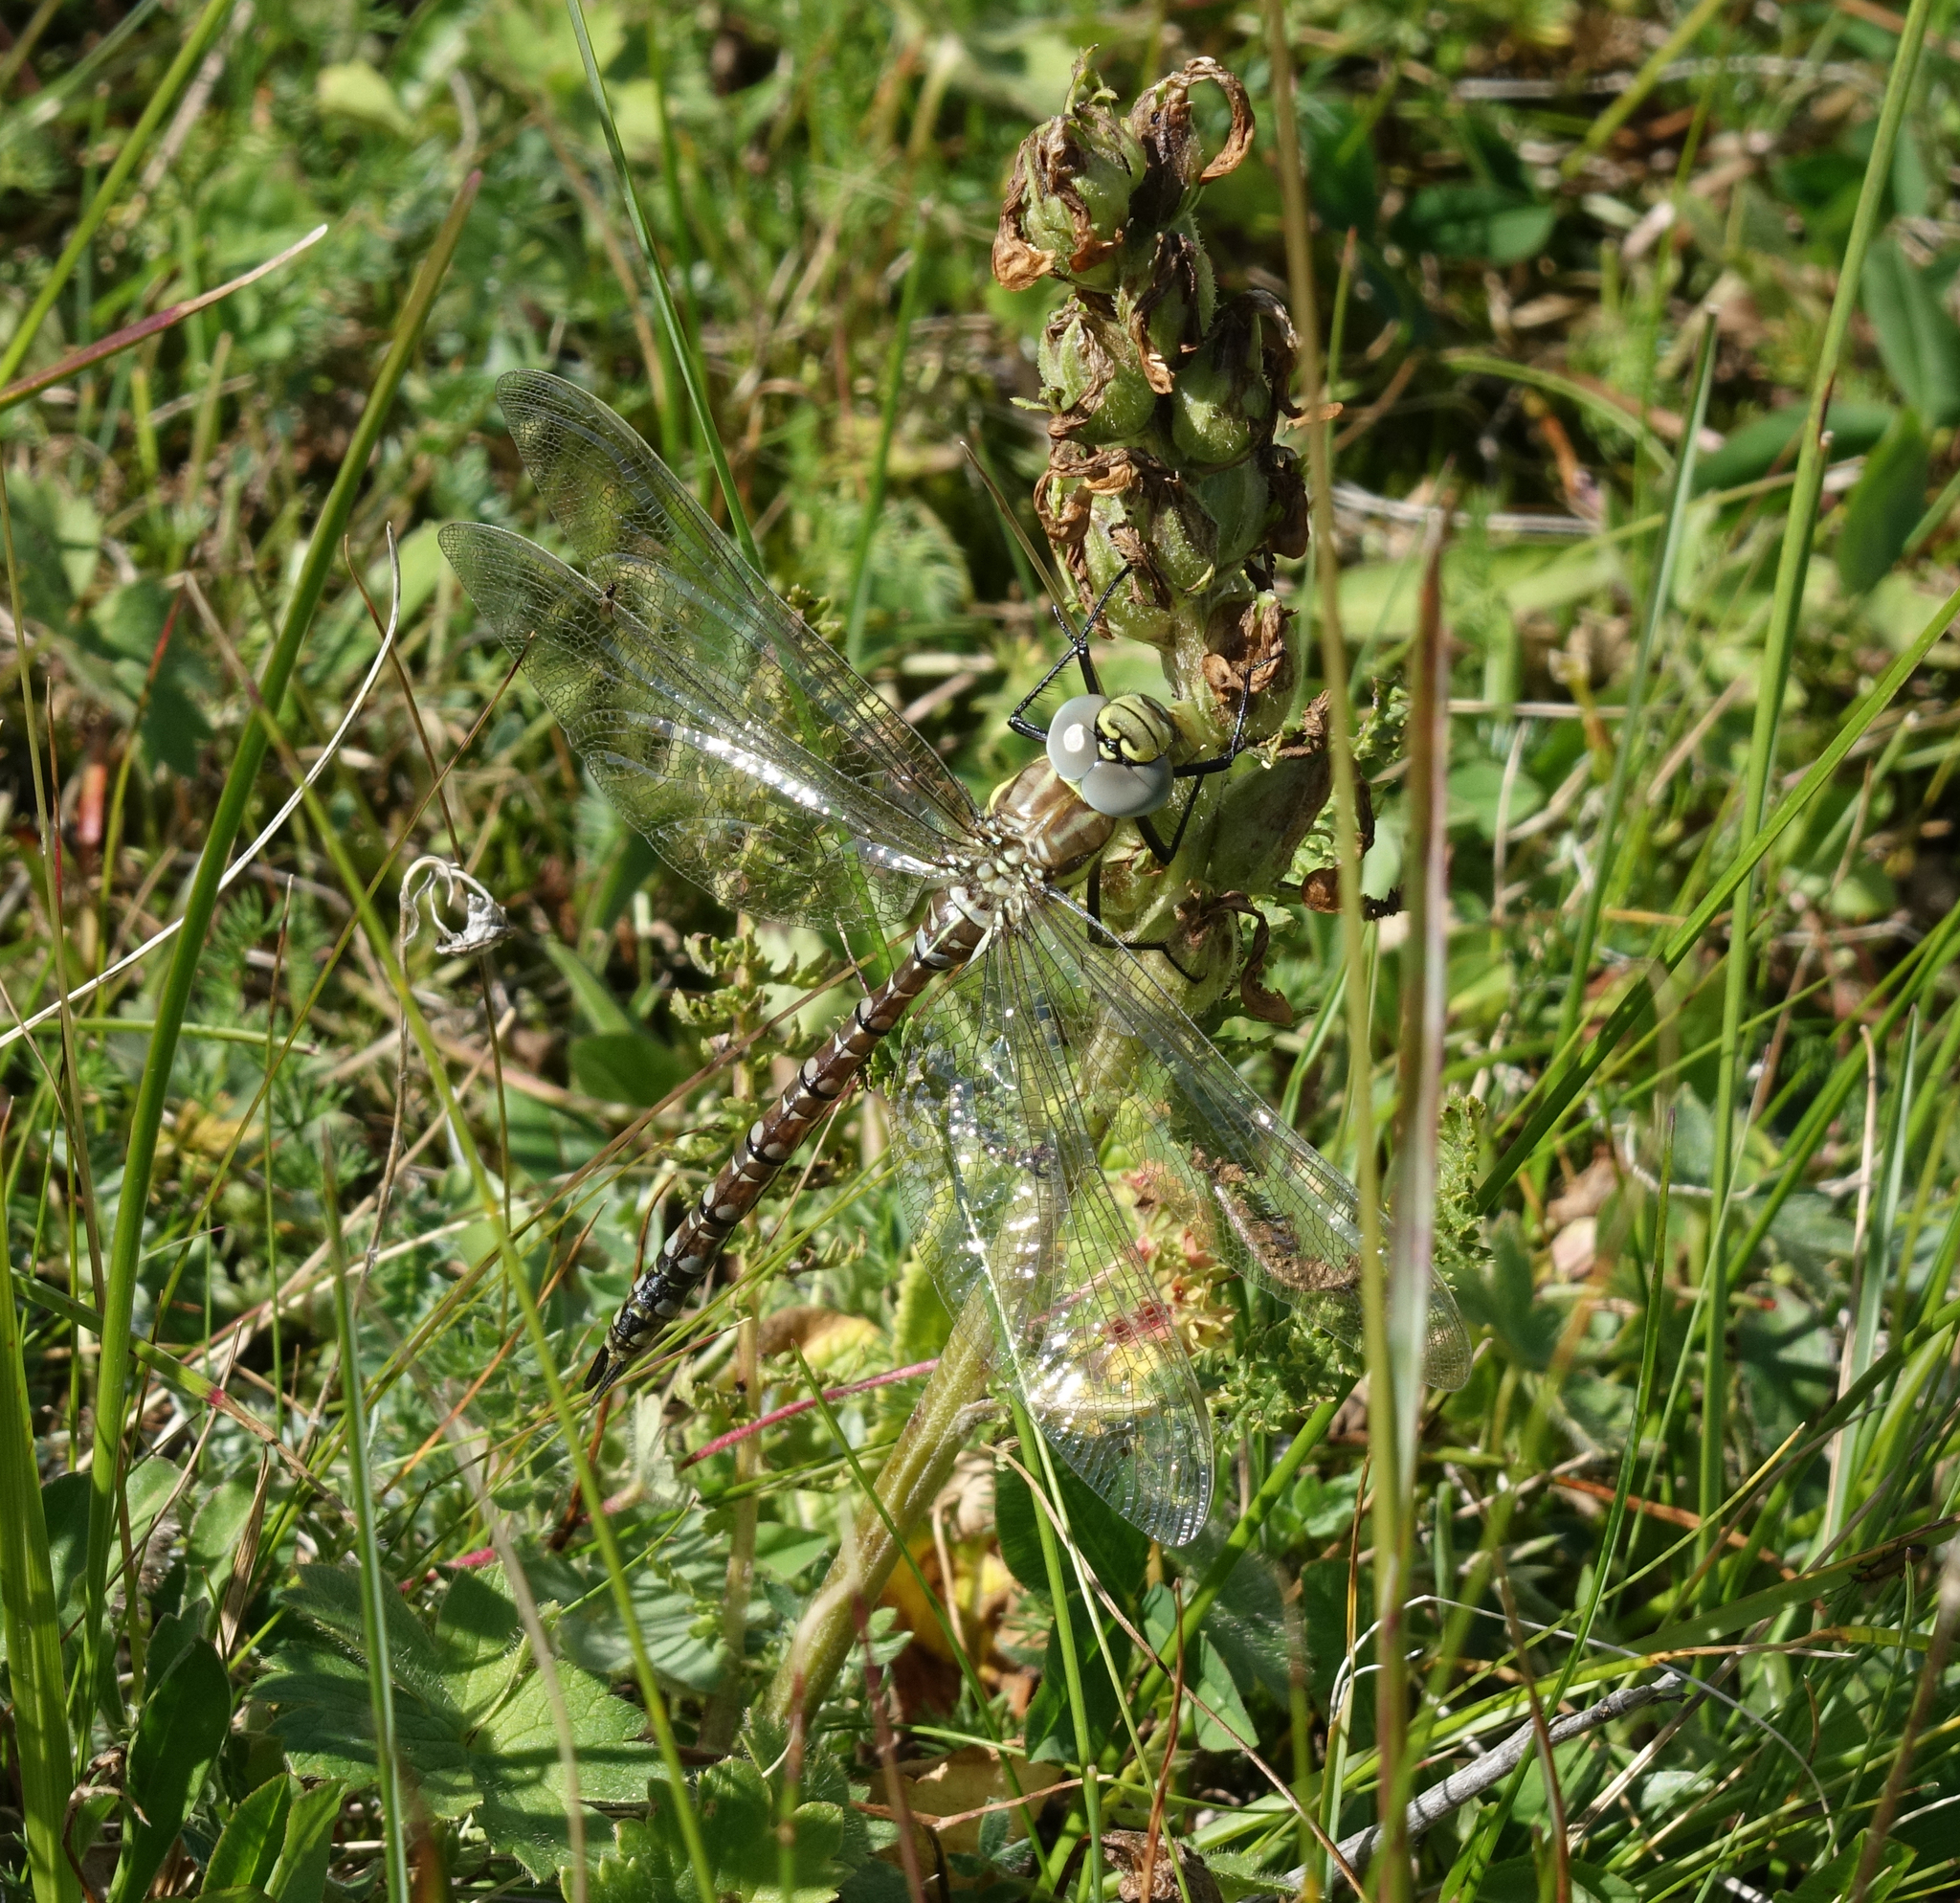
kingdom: Animalia
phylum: Arthropoda
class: Insecta
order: Odonata
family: Aeshnidae
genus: Aeshna
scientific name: Aeshna juncea
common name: Moorland hawker
